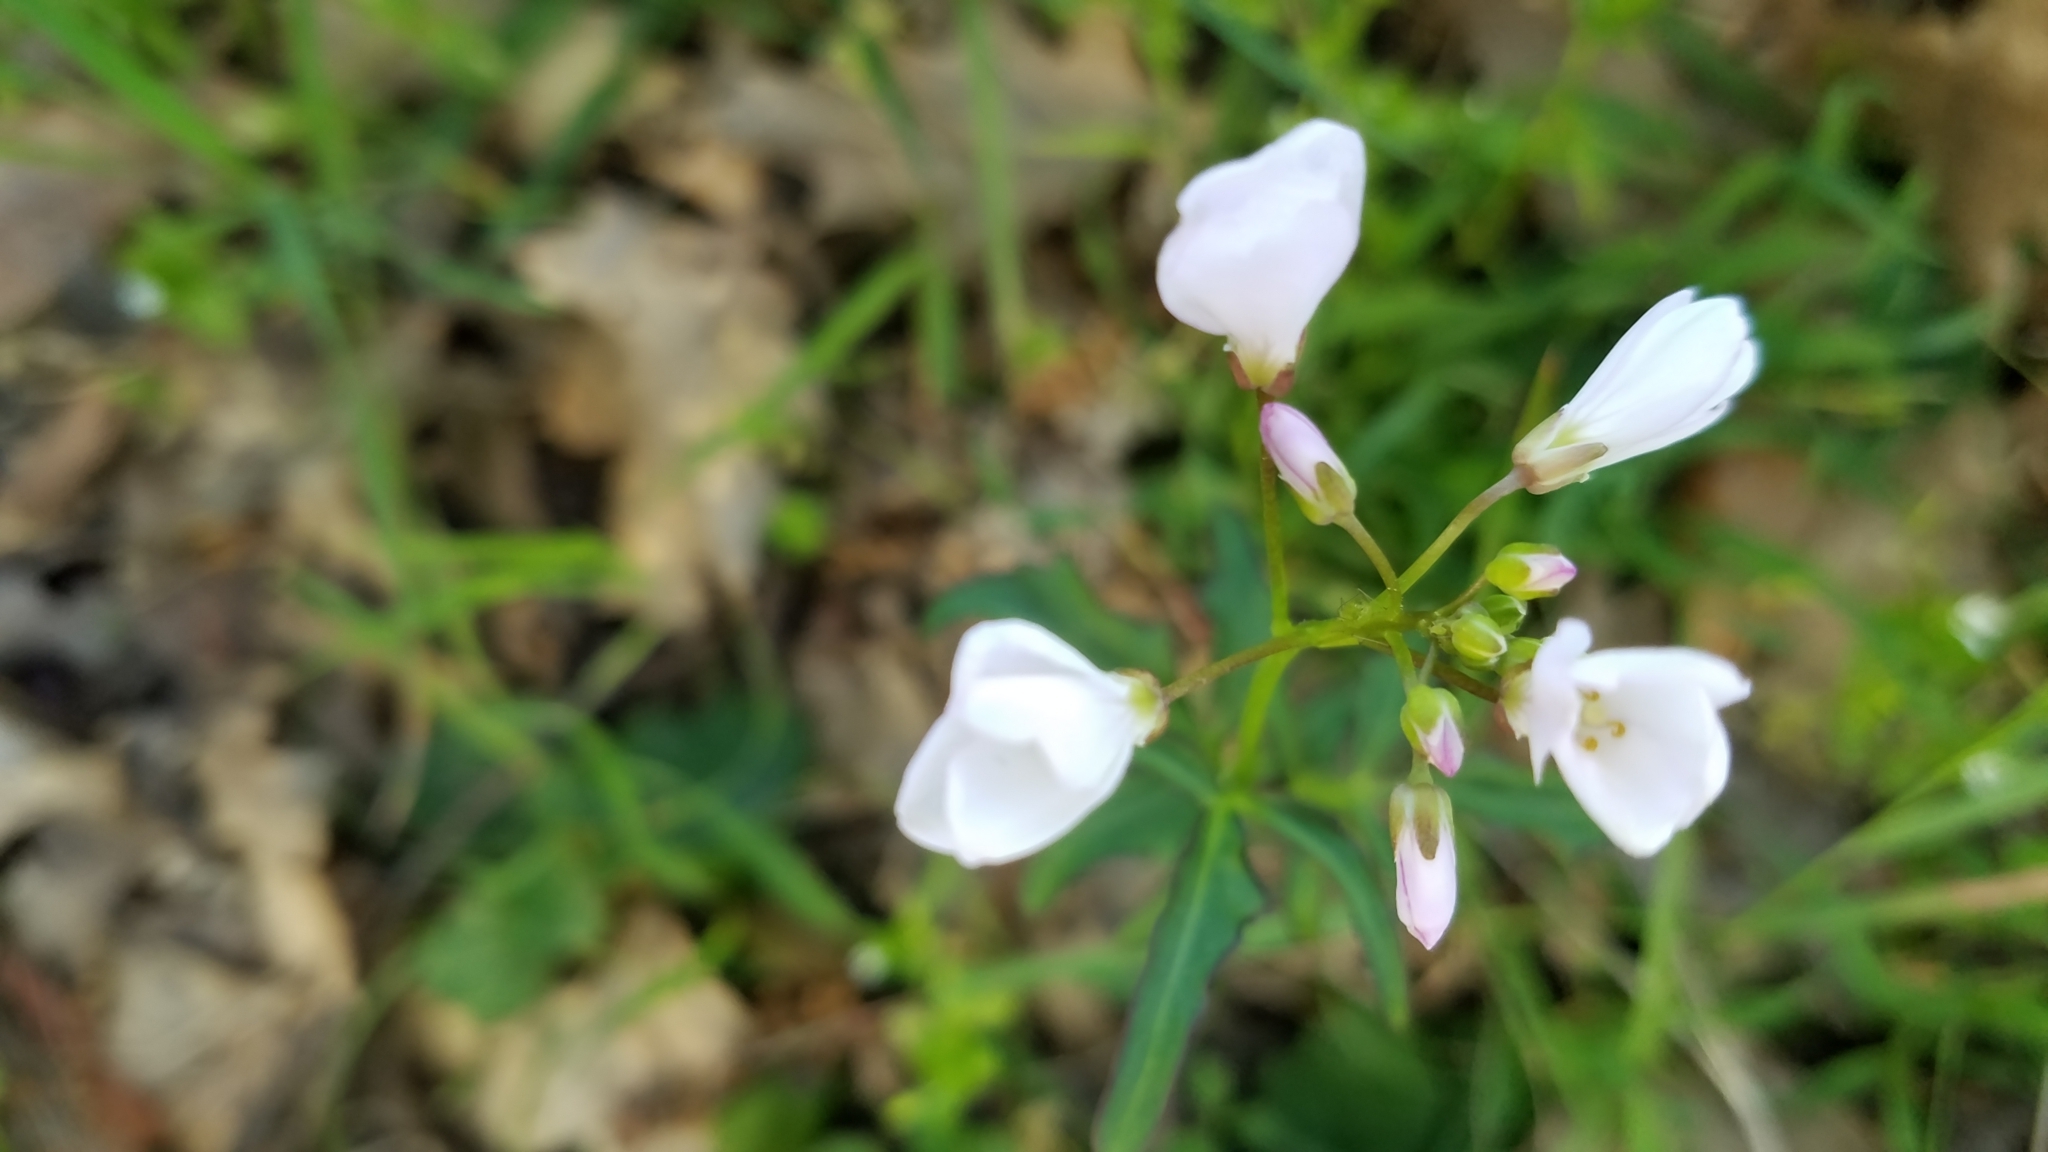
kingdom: Plantae
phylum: Tracheophyta
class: Magnoliopsida
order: Brassicales
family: Brassicaceae
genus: Cardamine
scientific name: Cardamine californica
